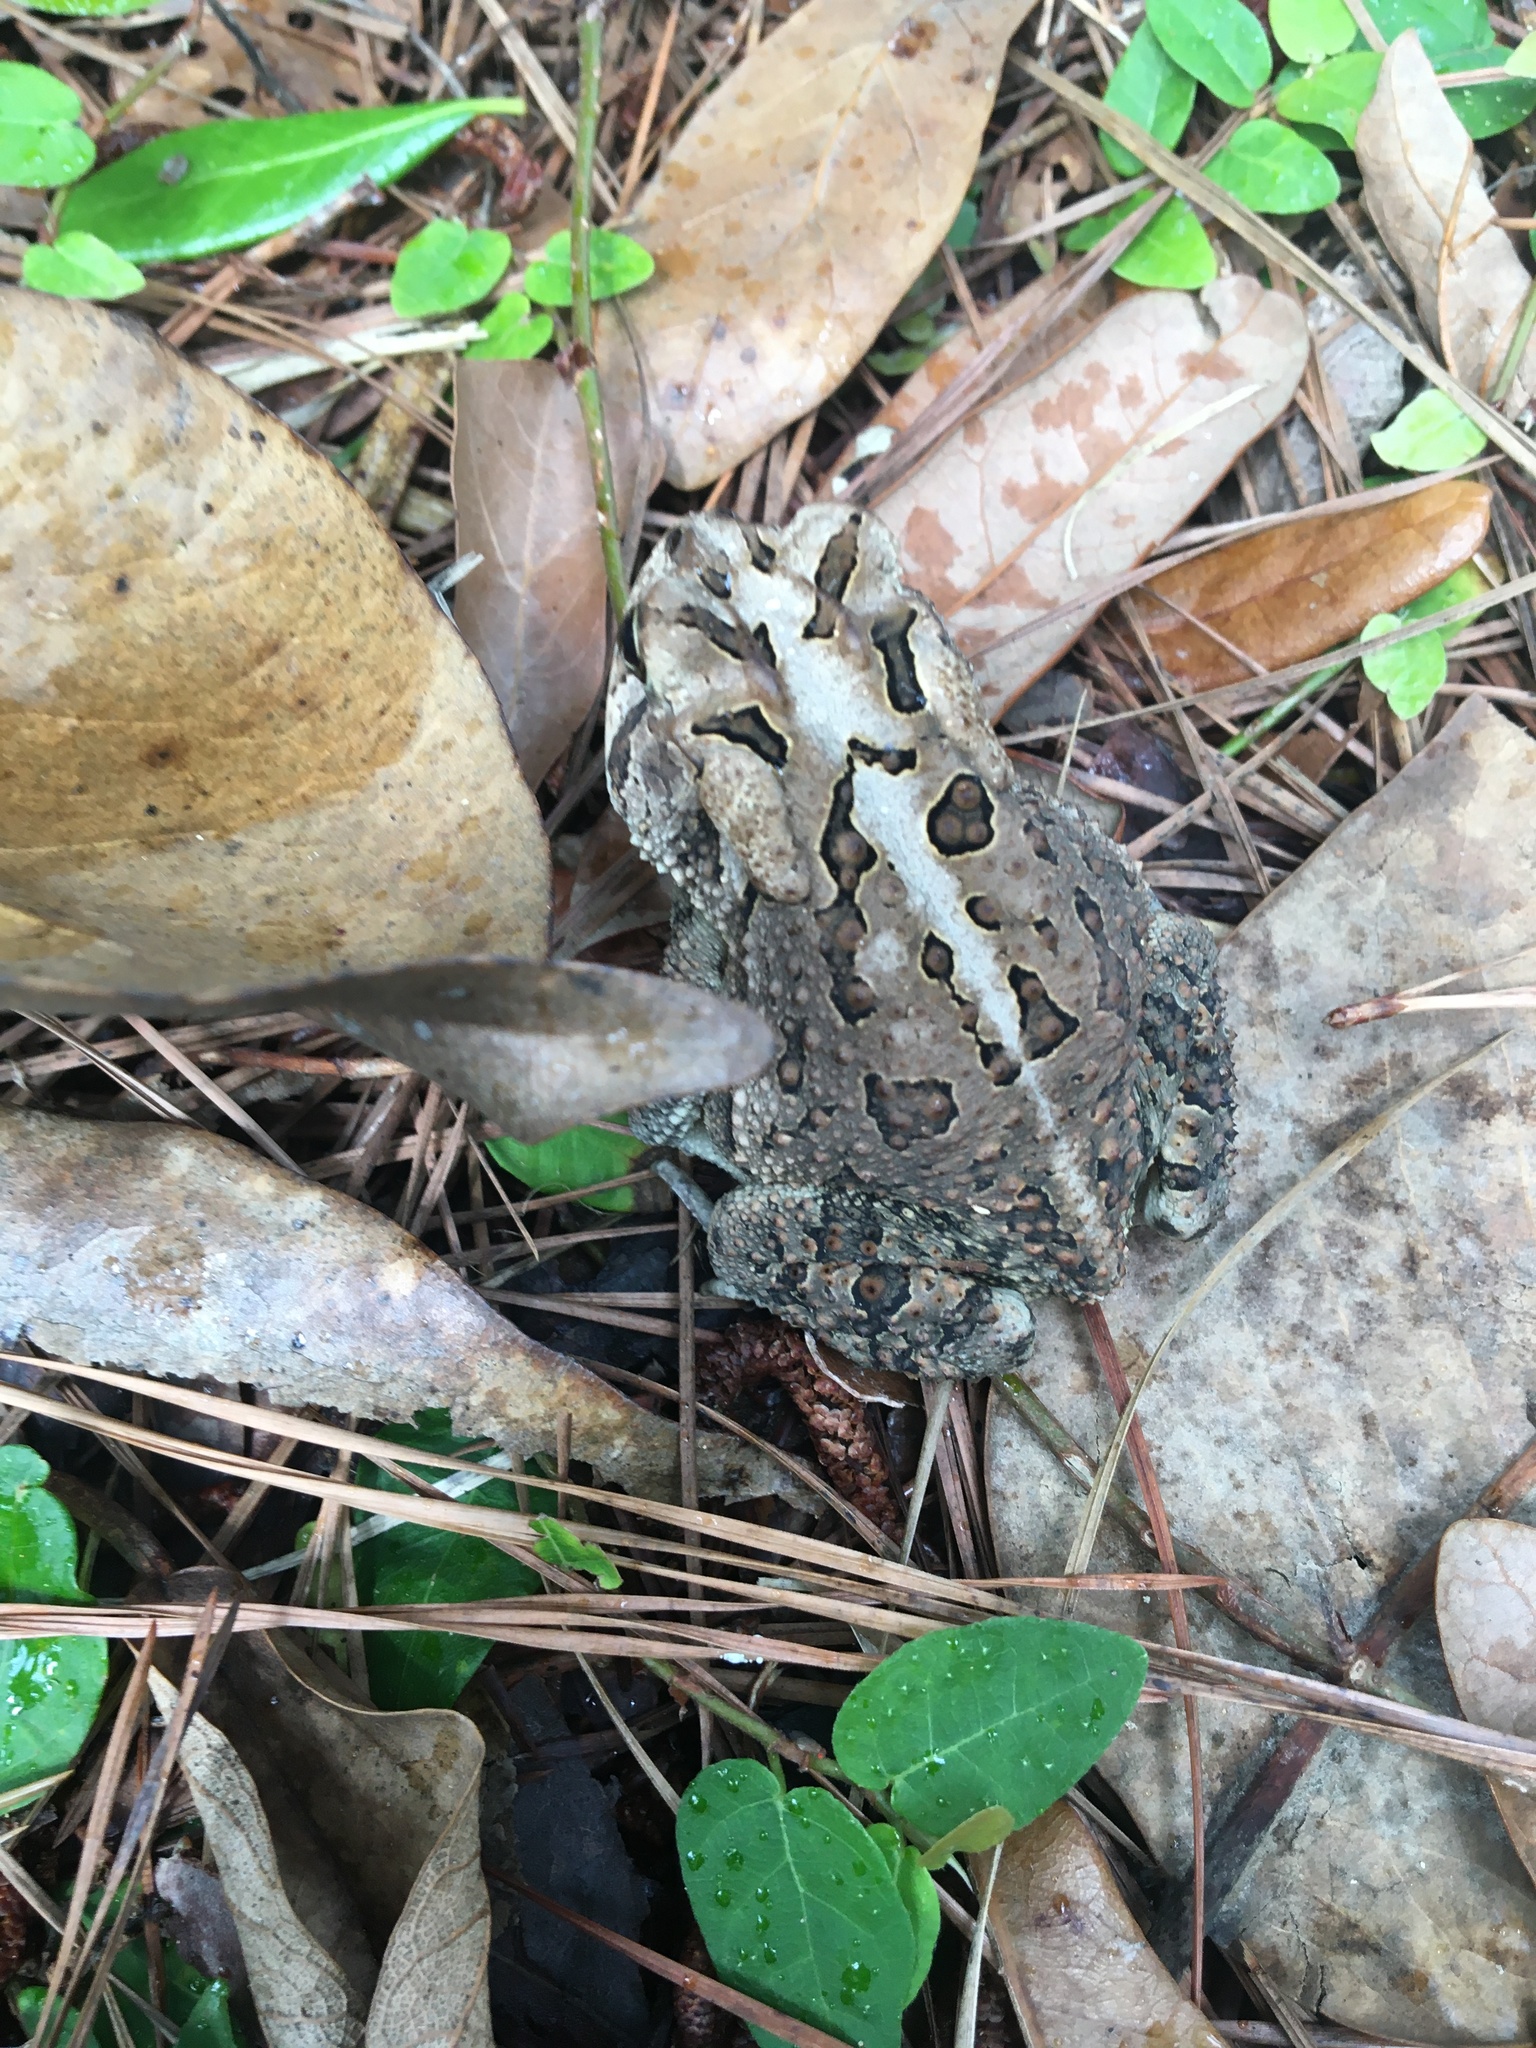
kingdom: Animalia
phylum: Chordata
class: Amphibia
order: Anura
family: Bufonidae
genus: Anaxyrus
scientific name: Anaxyrus terrestris
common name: Southern toad
